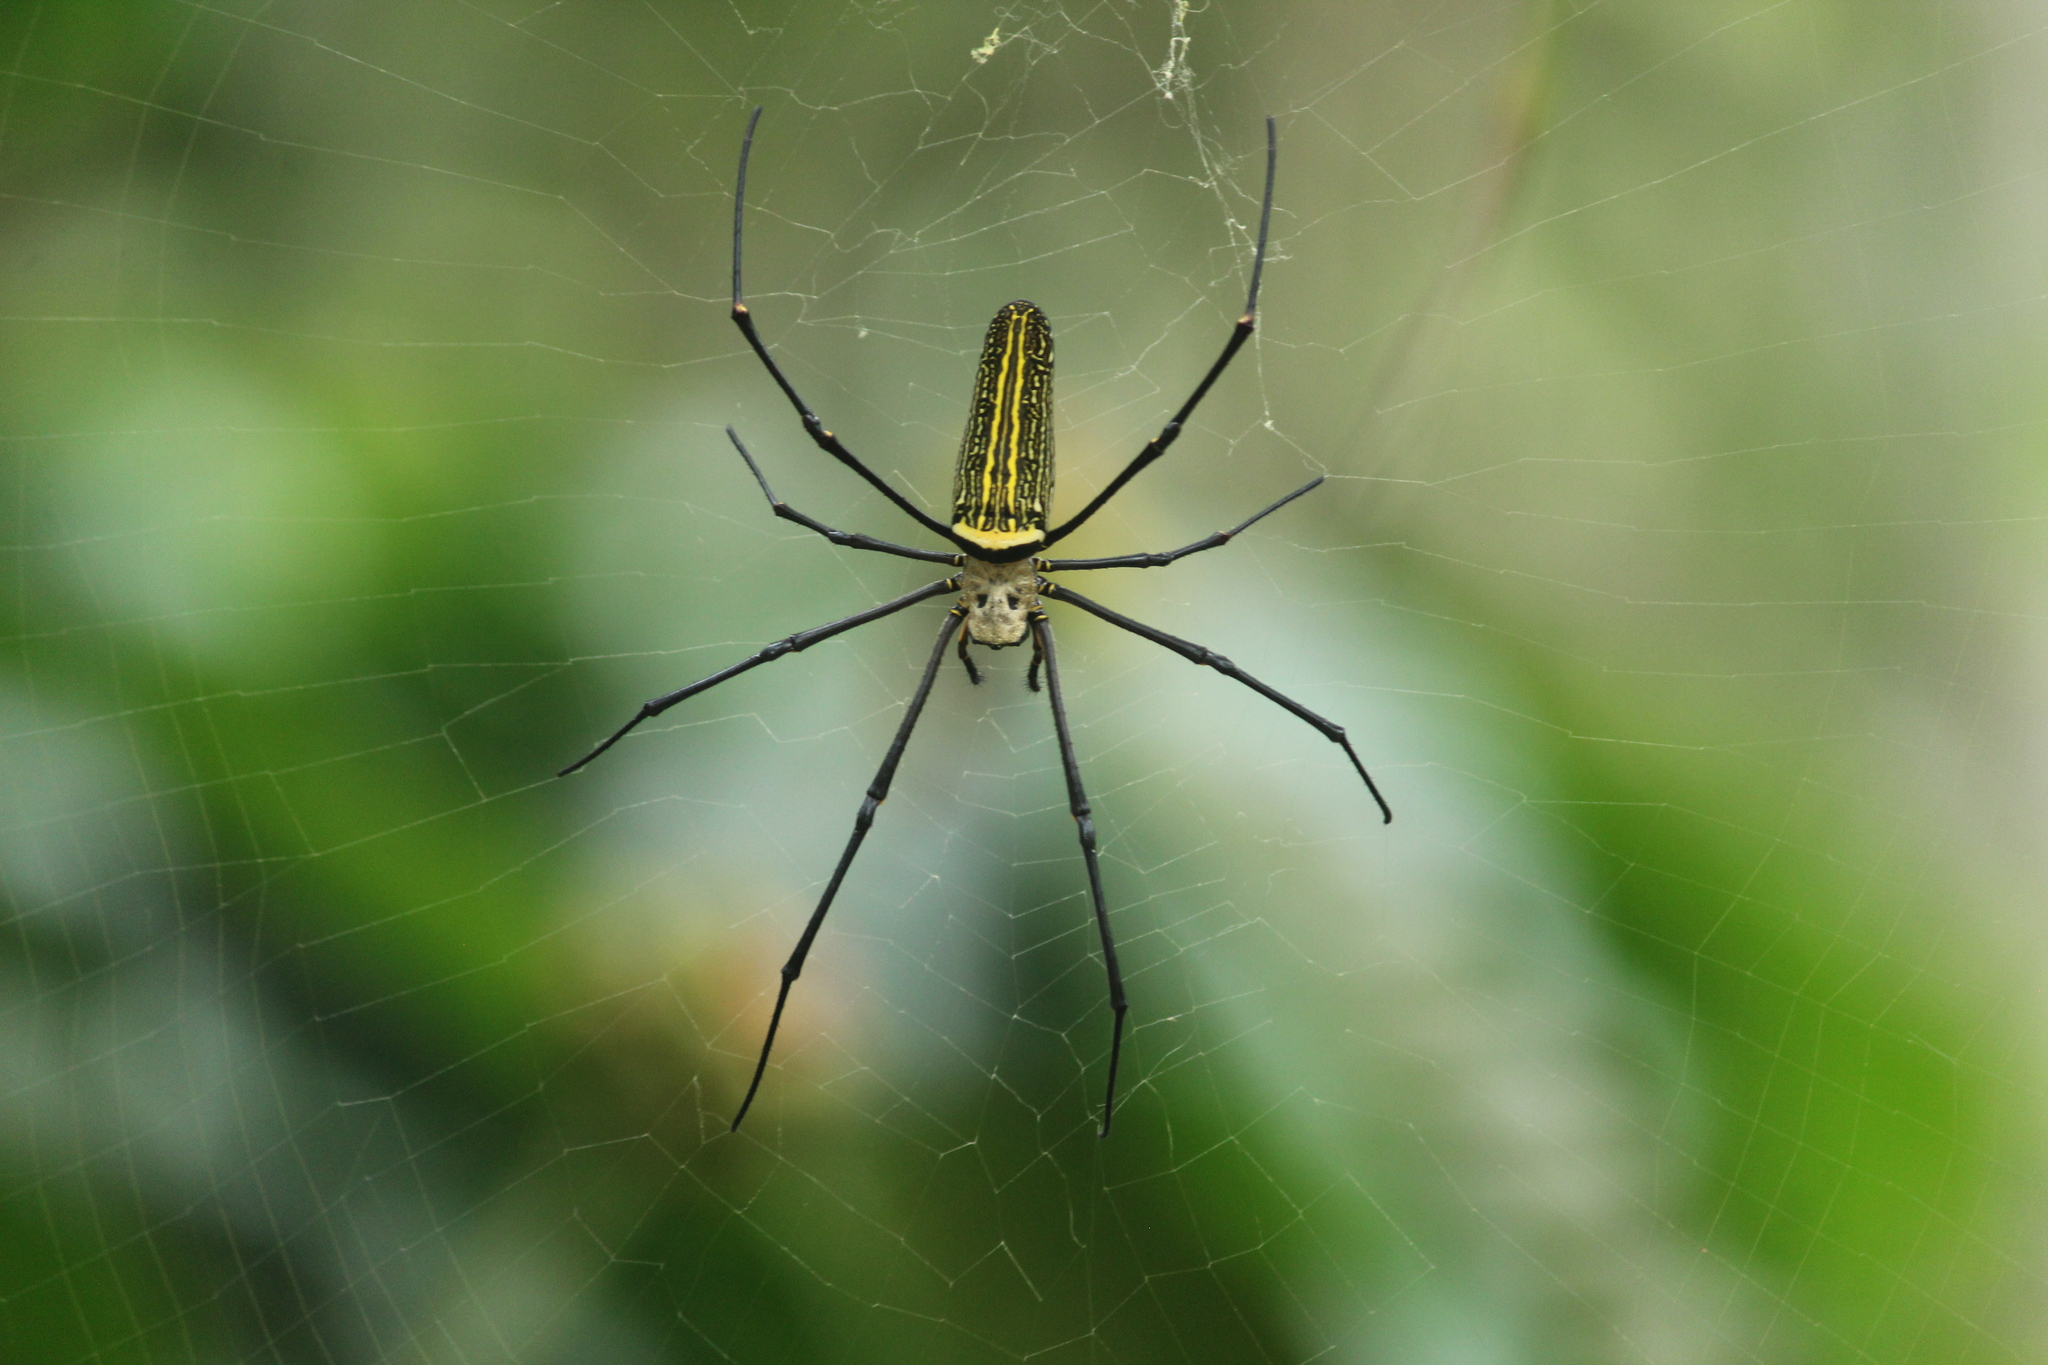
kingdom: Animalia
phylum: Arthropoda
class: Arachnida
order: Araneae
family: Araneidae
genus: Nephila
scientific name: Nephila pilipes
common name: Giant golden orb weaver
